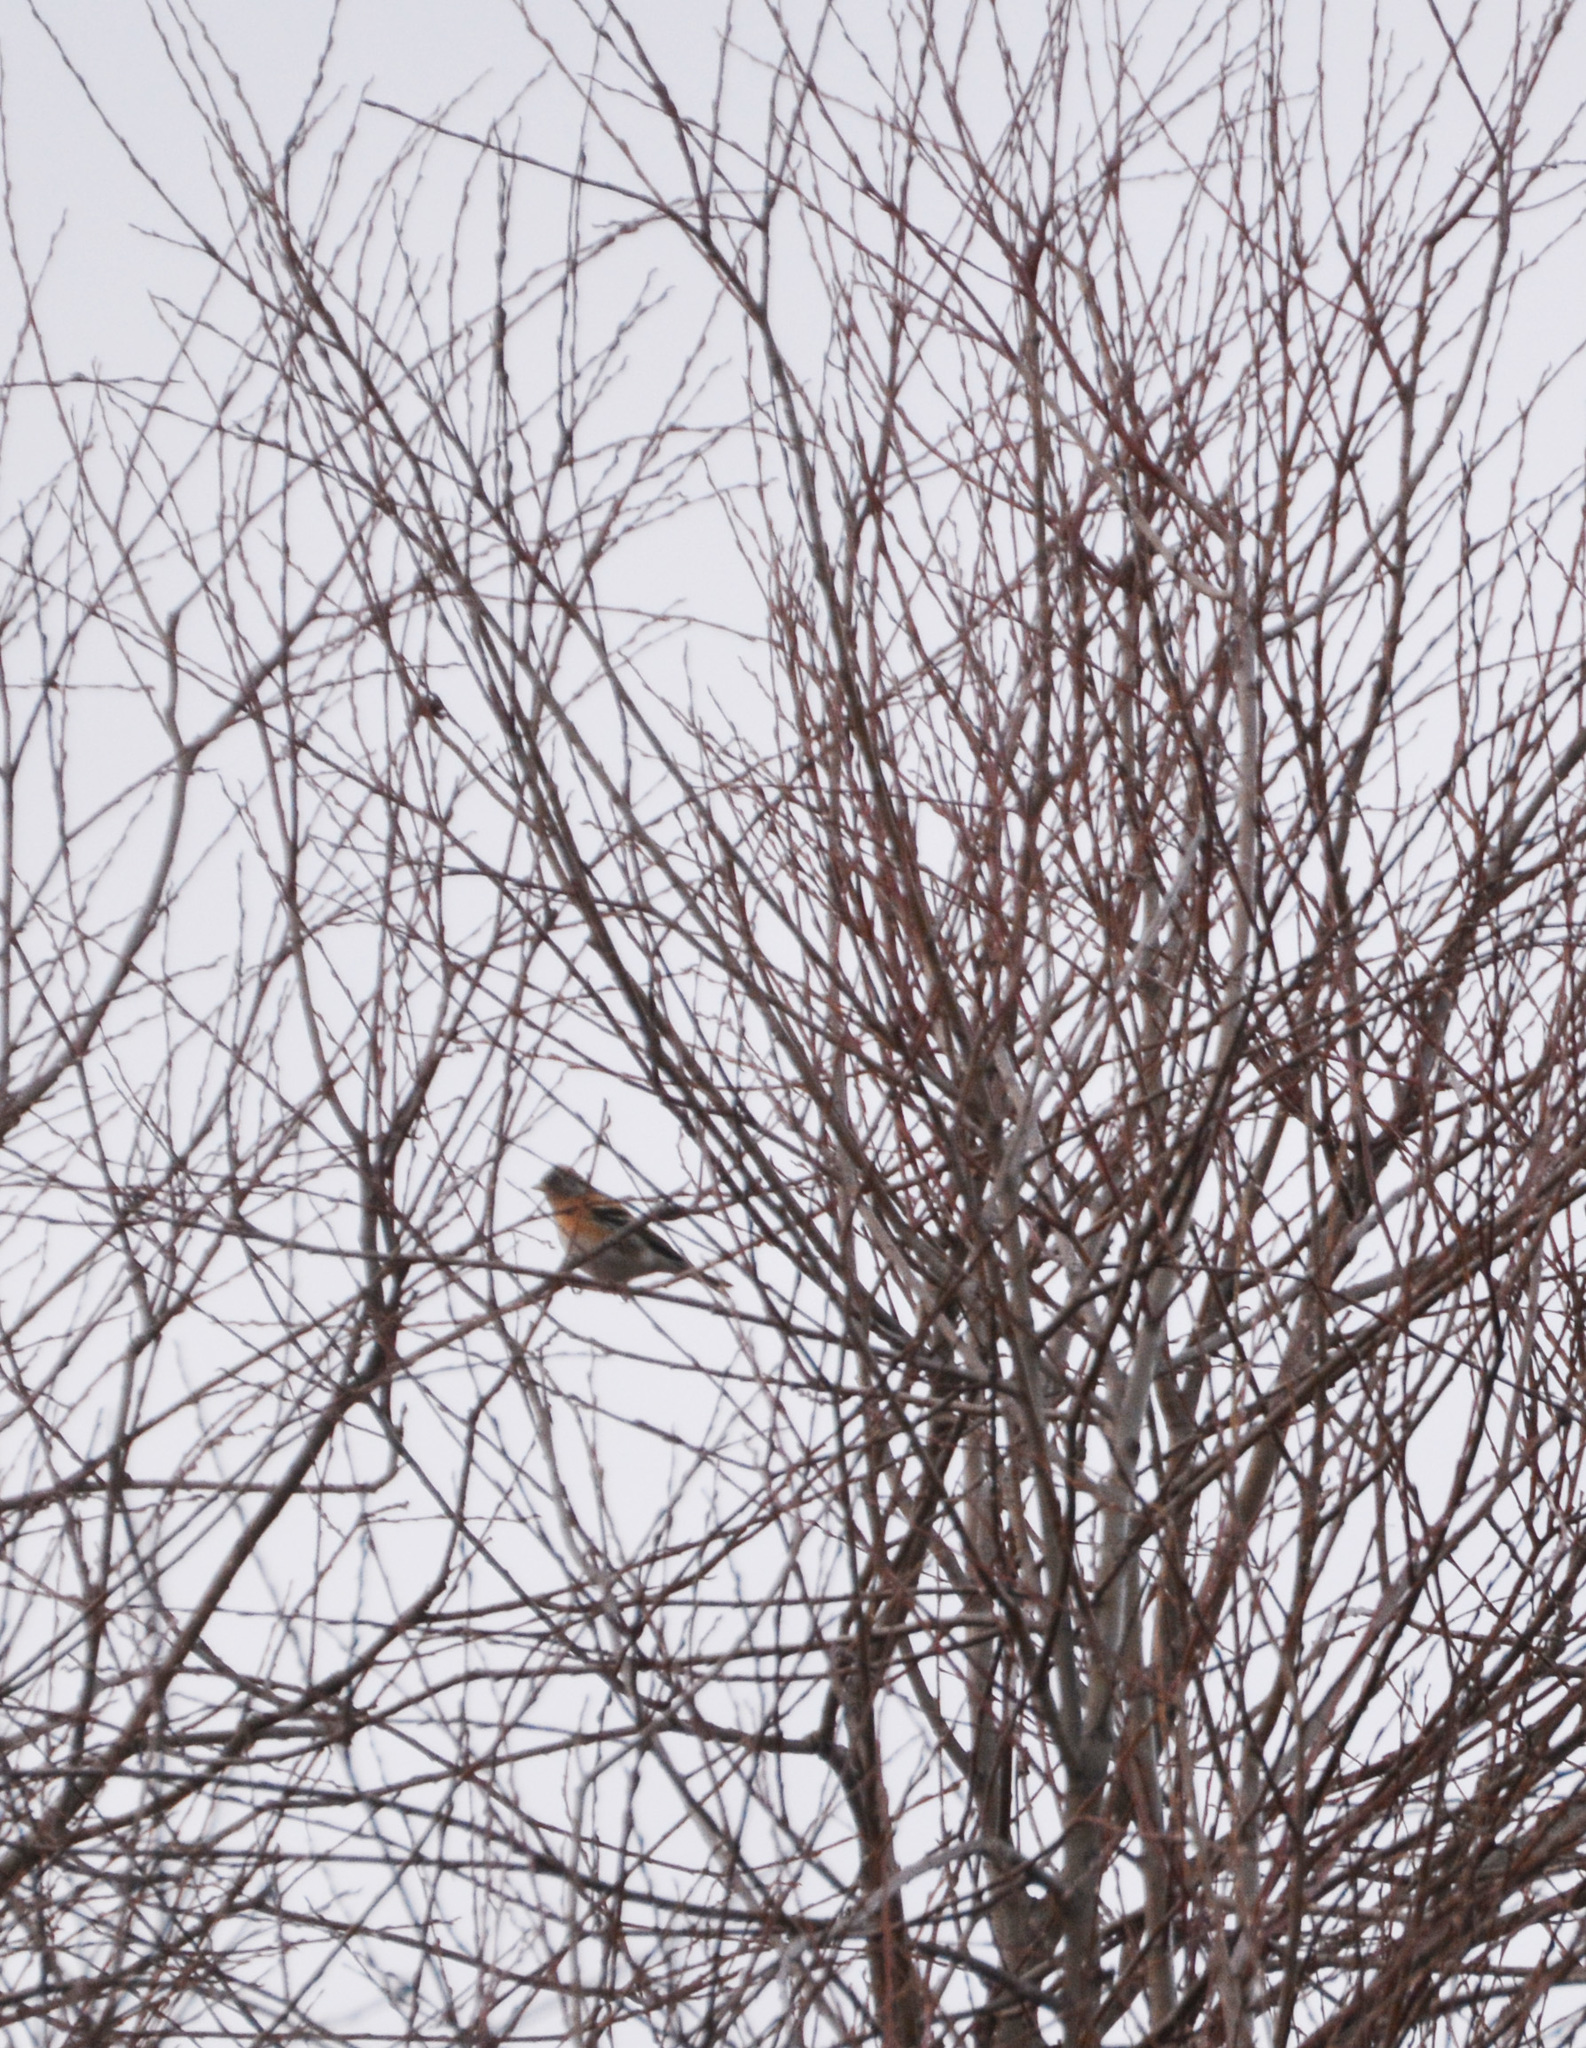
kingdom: Animalia
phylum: Chordata
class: Aves
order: Passeriformes
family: Fringillidae
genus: Fringilla
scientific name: Fringilla montifringilla
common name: Brambling
